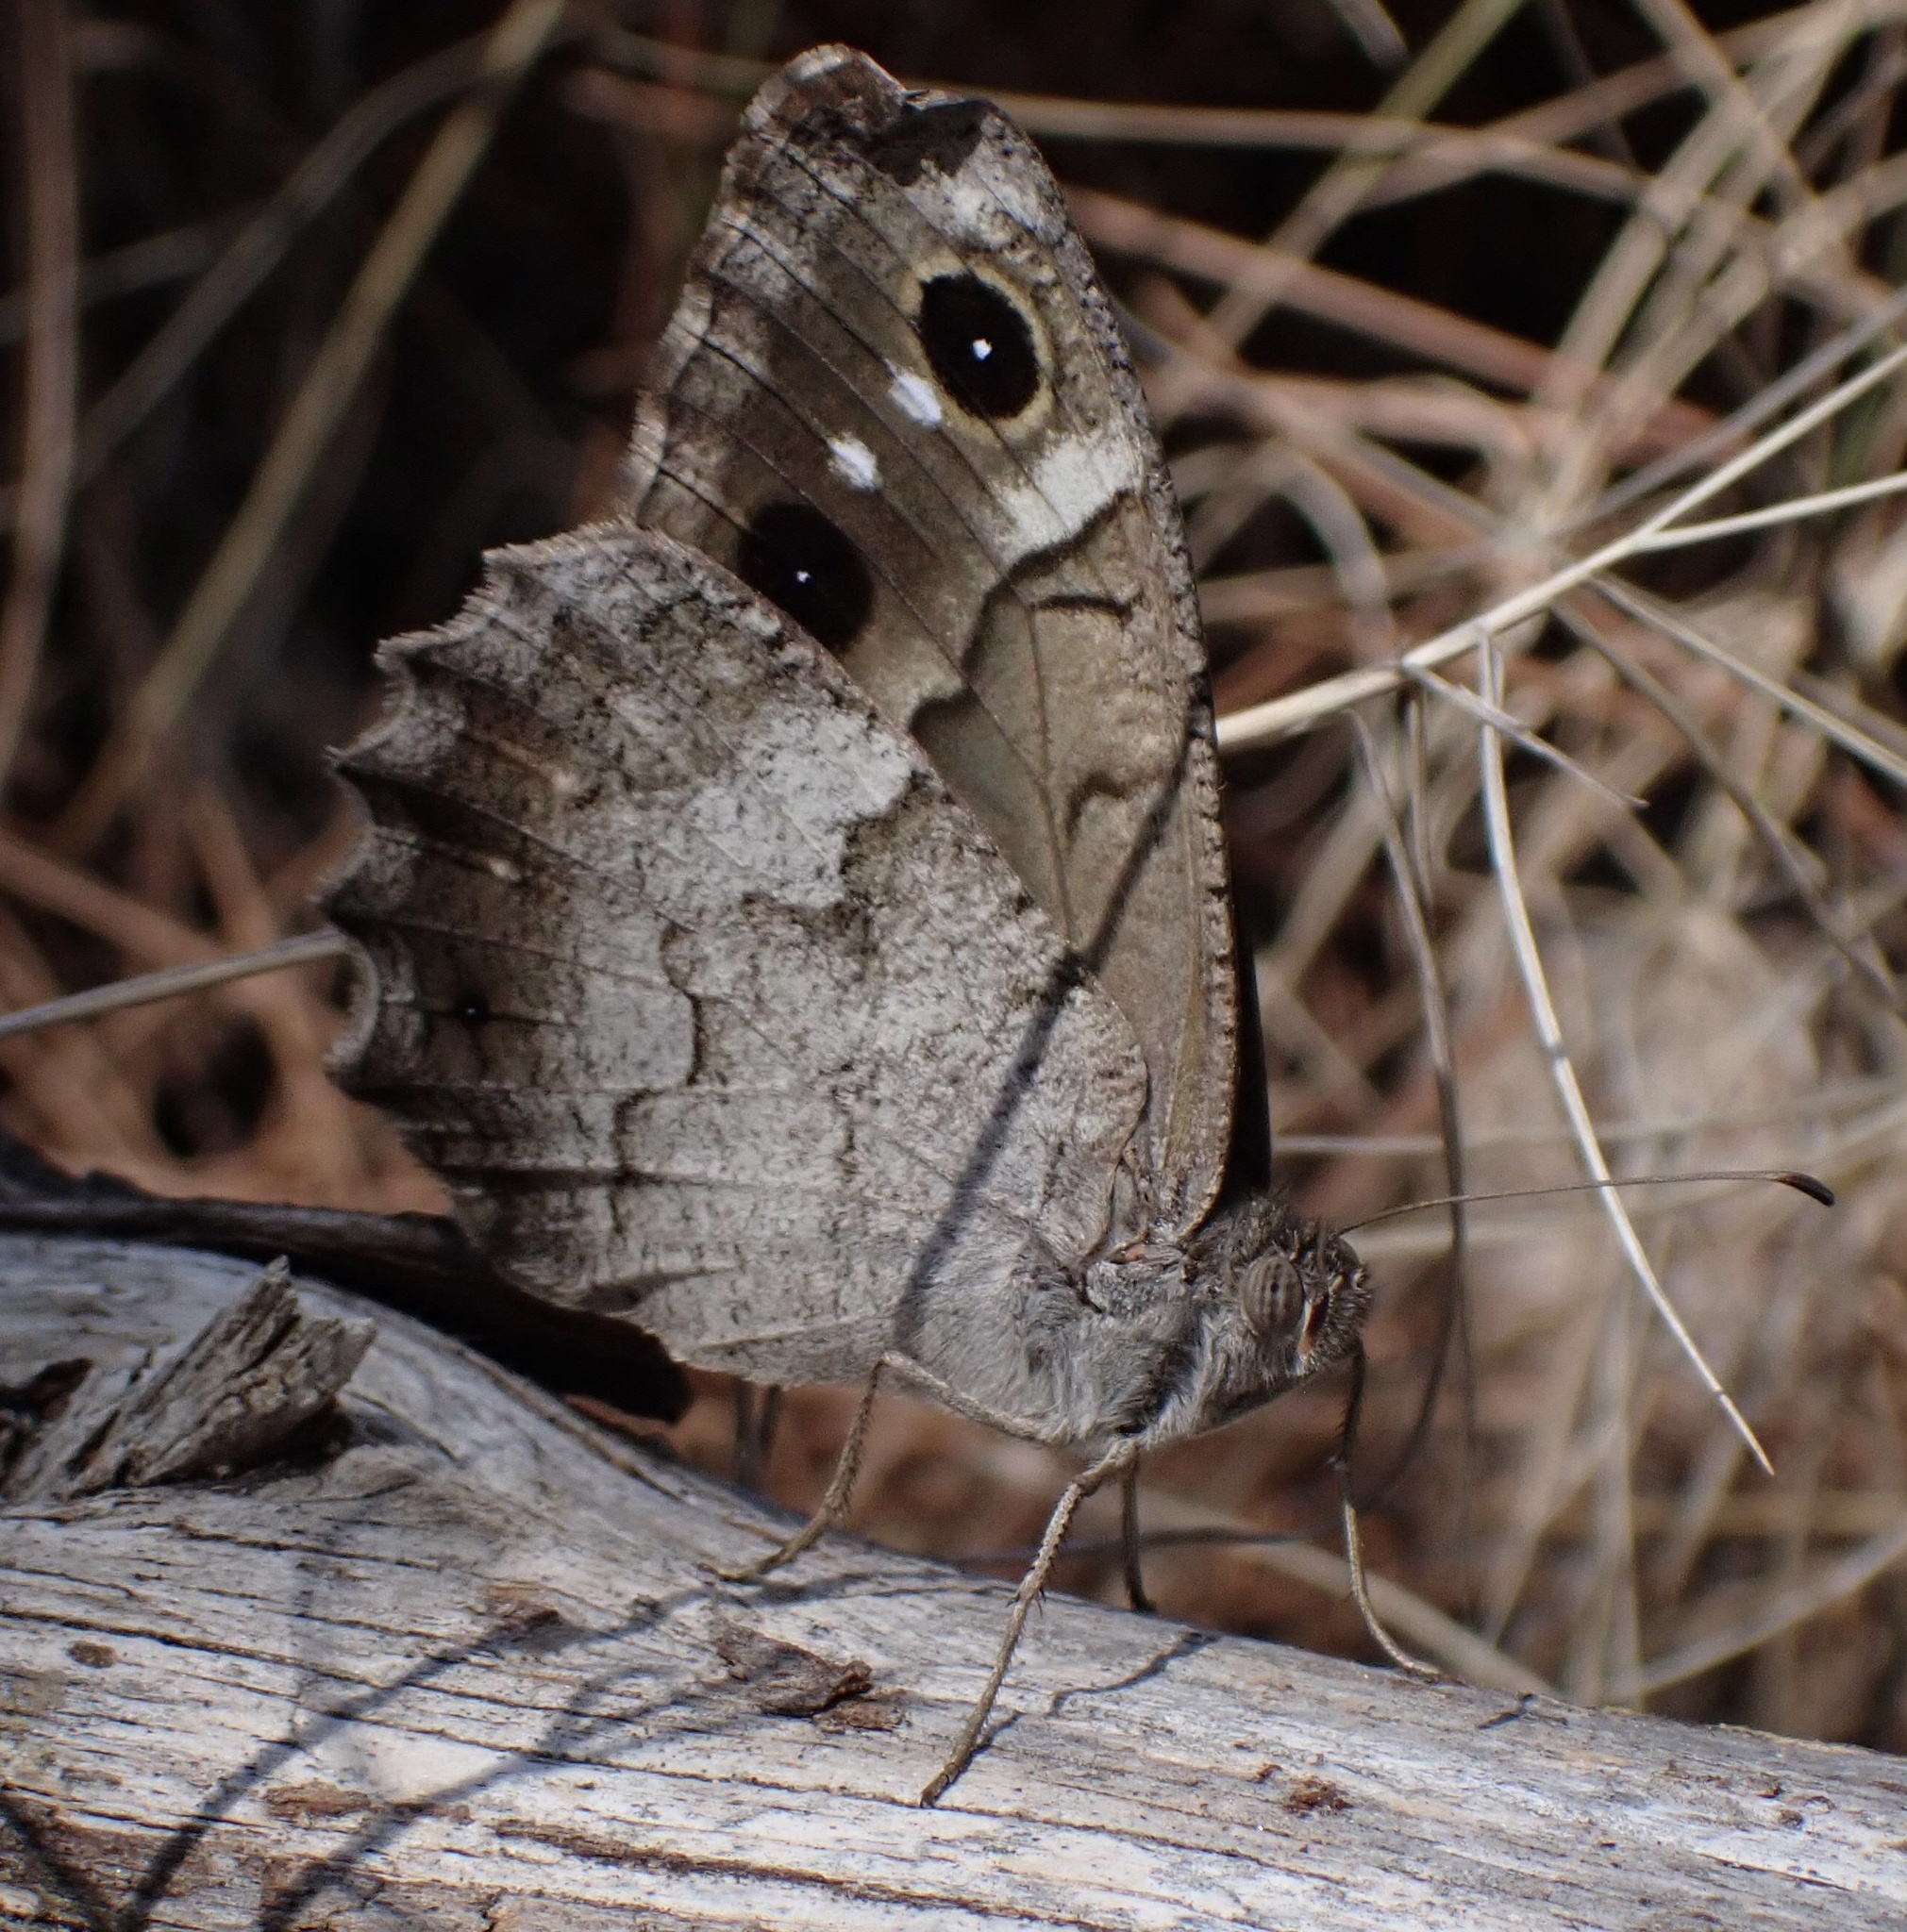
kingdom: Animalia
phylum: Arthropoda
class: Insecta
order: Lepidoptera
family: Nymphalidae
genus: Hipparchia
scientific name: Hipparchia statilinus
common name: Tree grayling
